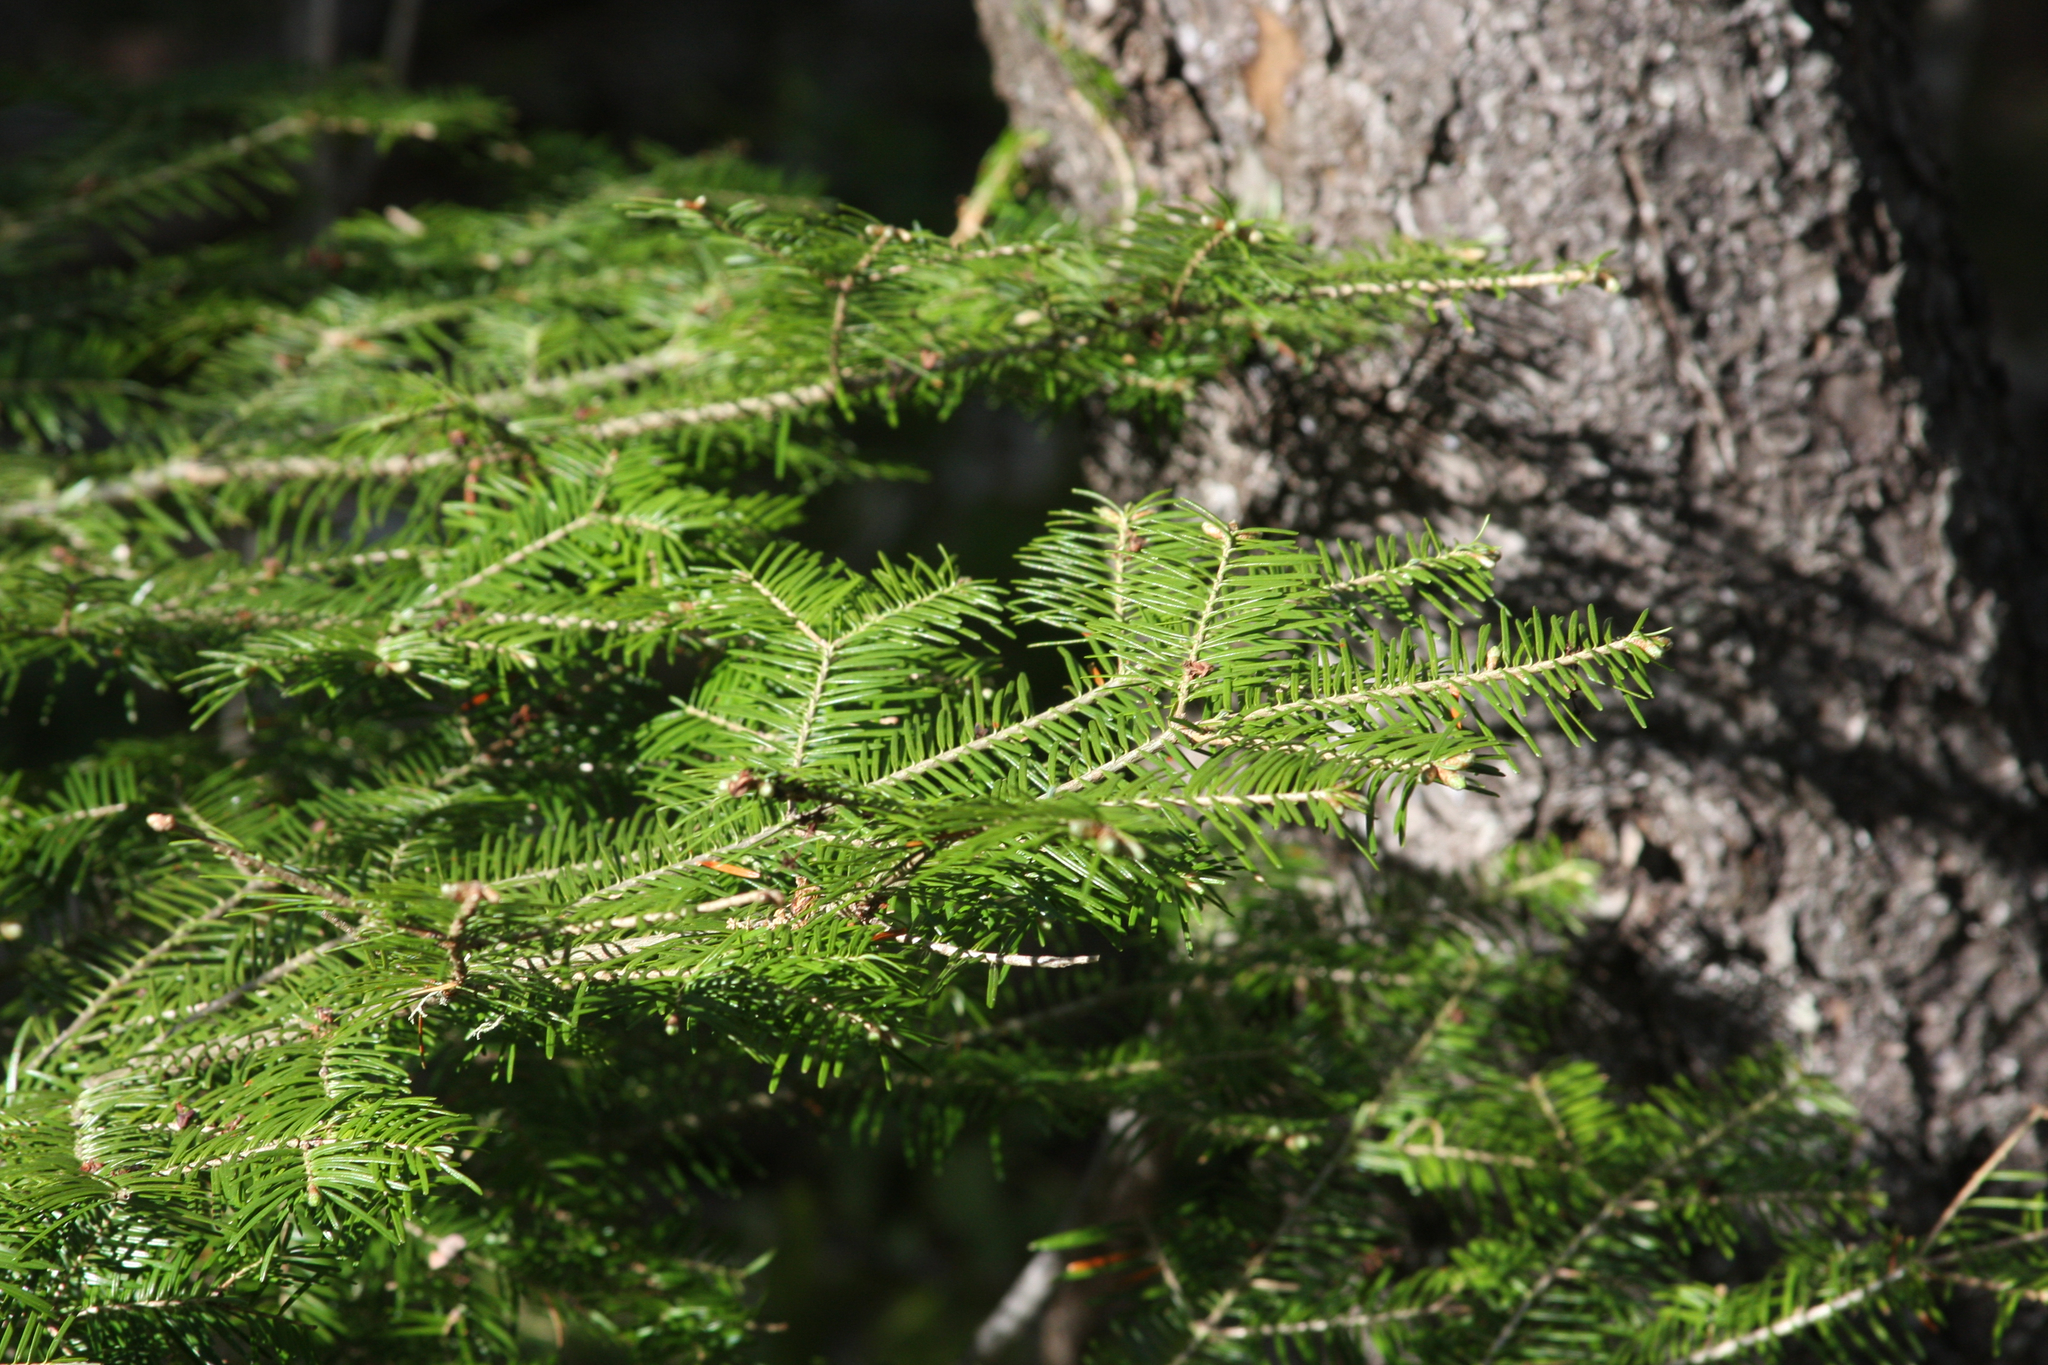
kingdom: Plantae
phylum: Tracheophyta
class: Pinopsida
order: Pinales
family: Pinaceae
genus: Abies
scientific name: Abies balsamea
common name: Balsam fir
